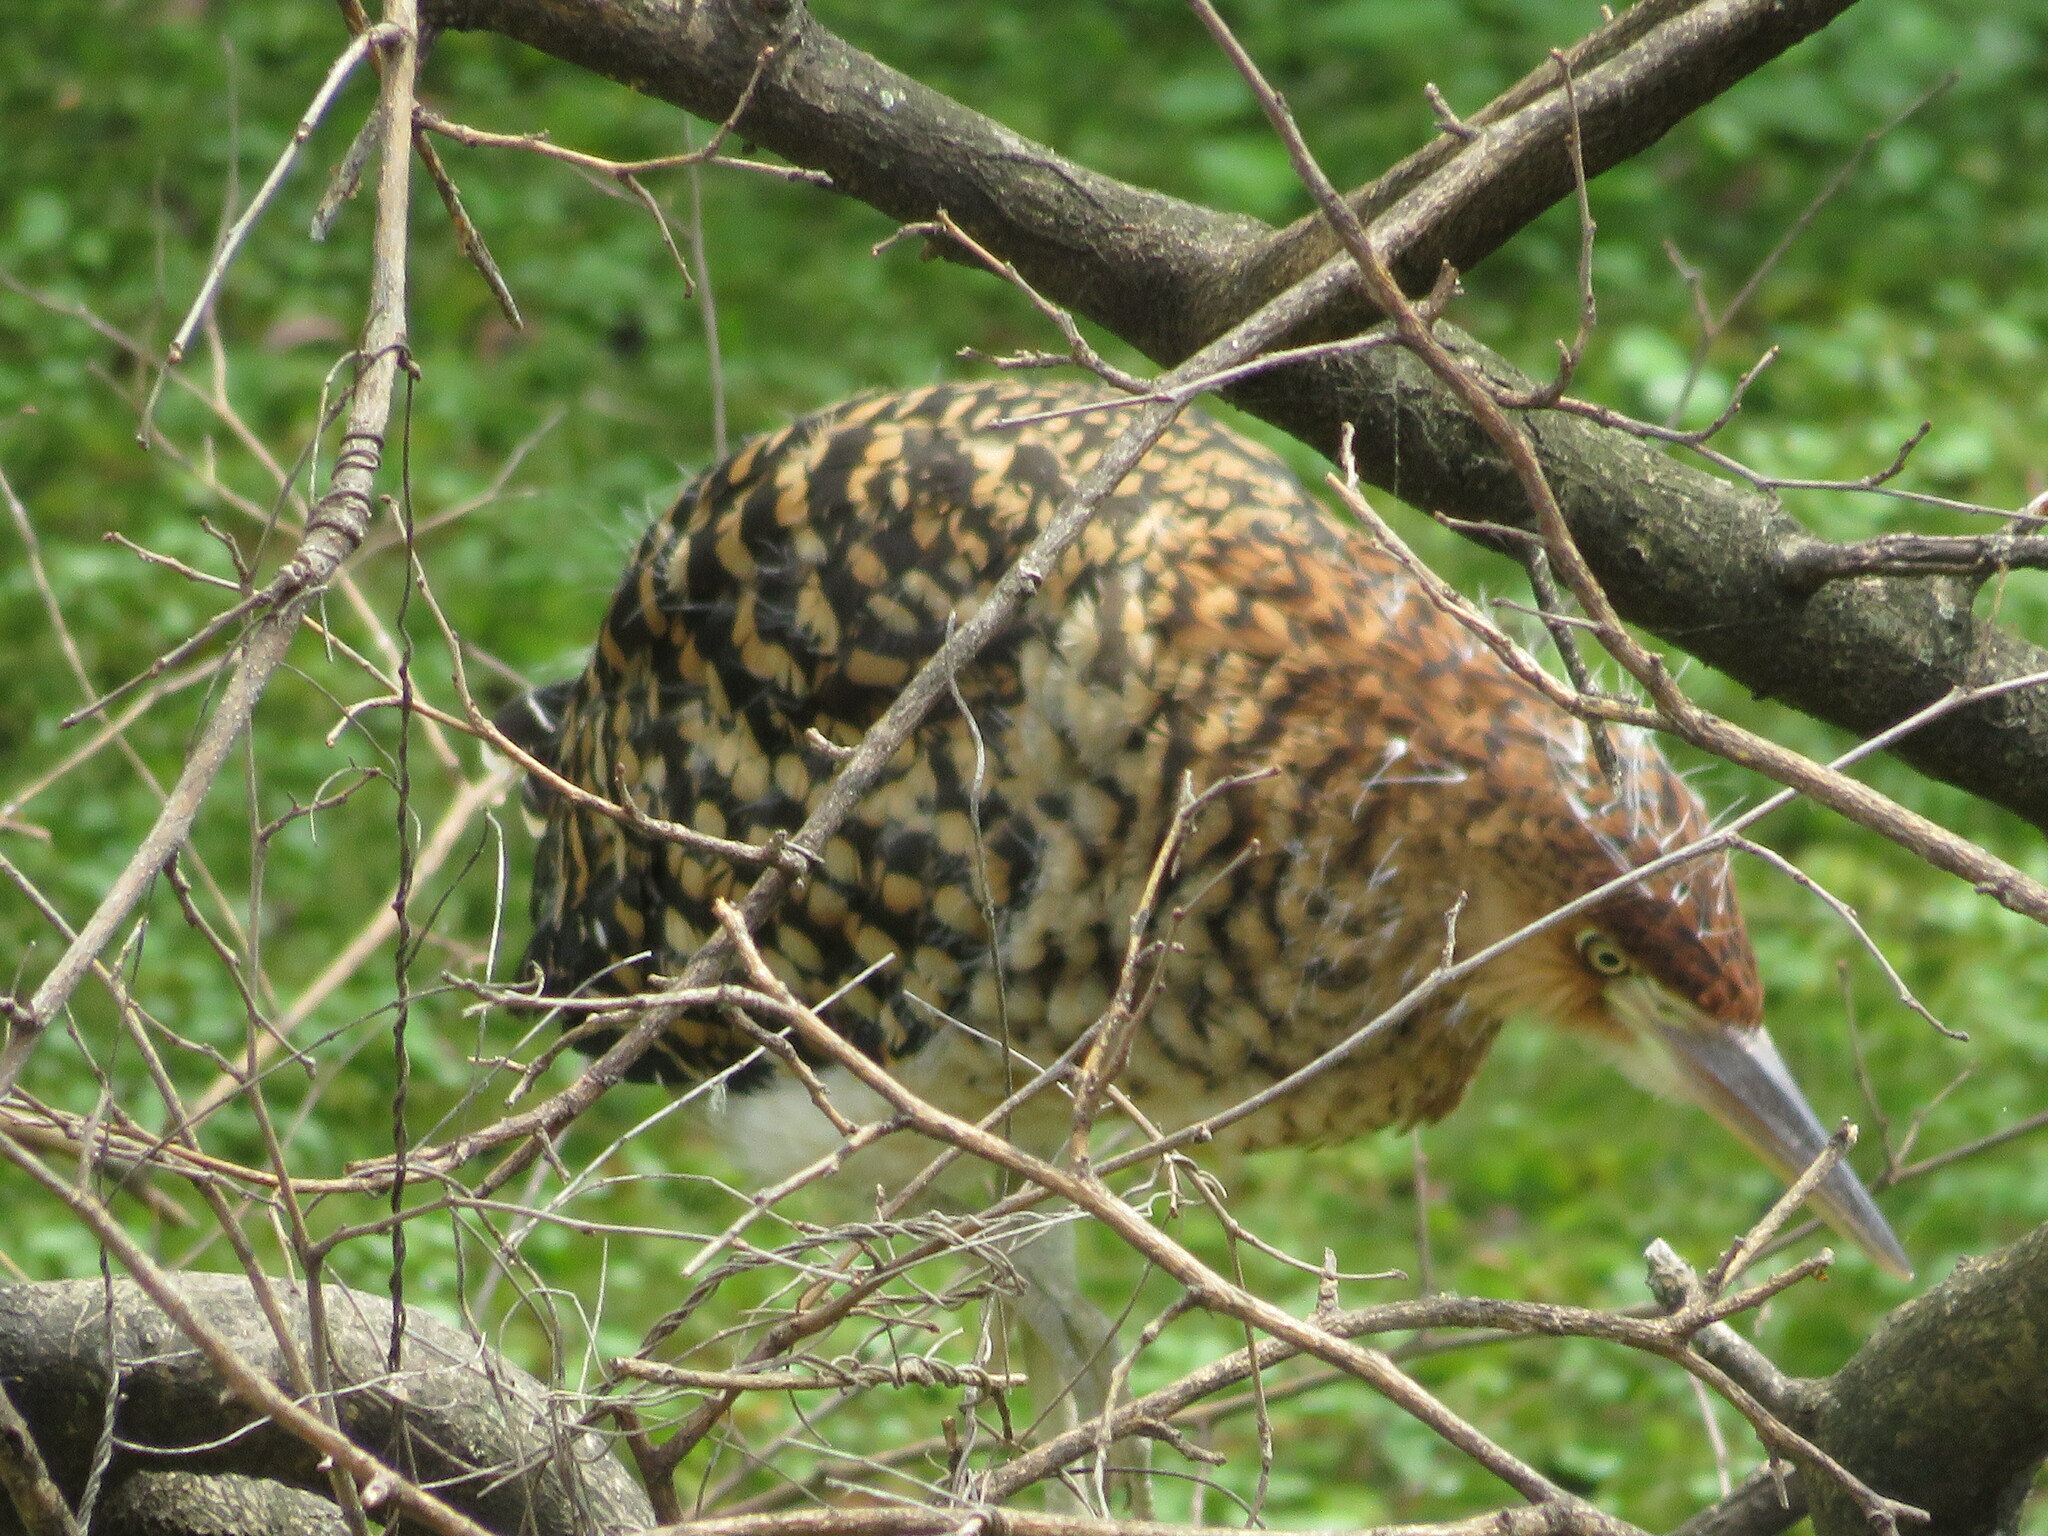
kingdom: Animalia
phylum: Chordata
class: Aves
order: Pelecaniformes
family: Ardeidae
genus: Tigrisoma
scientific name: Tigrisoma lineatum
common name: Rufescent tiger-heron
